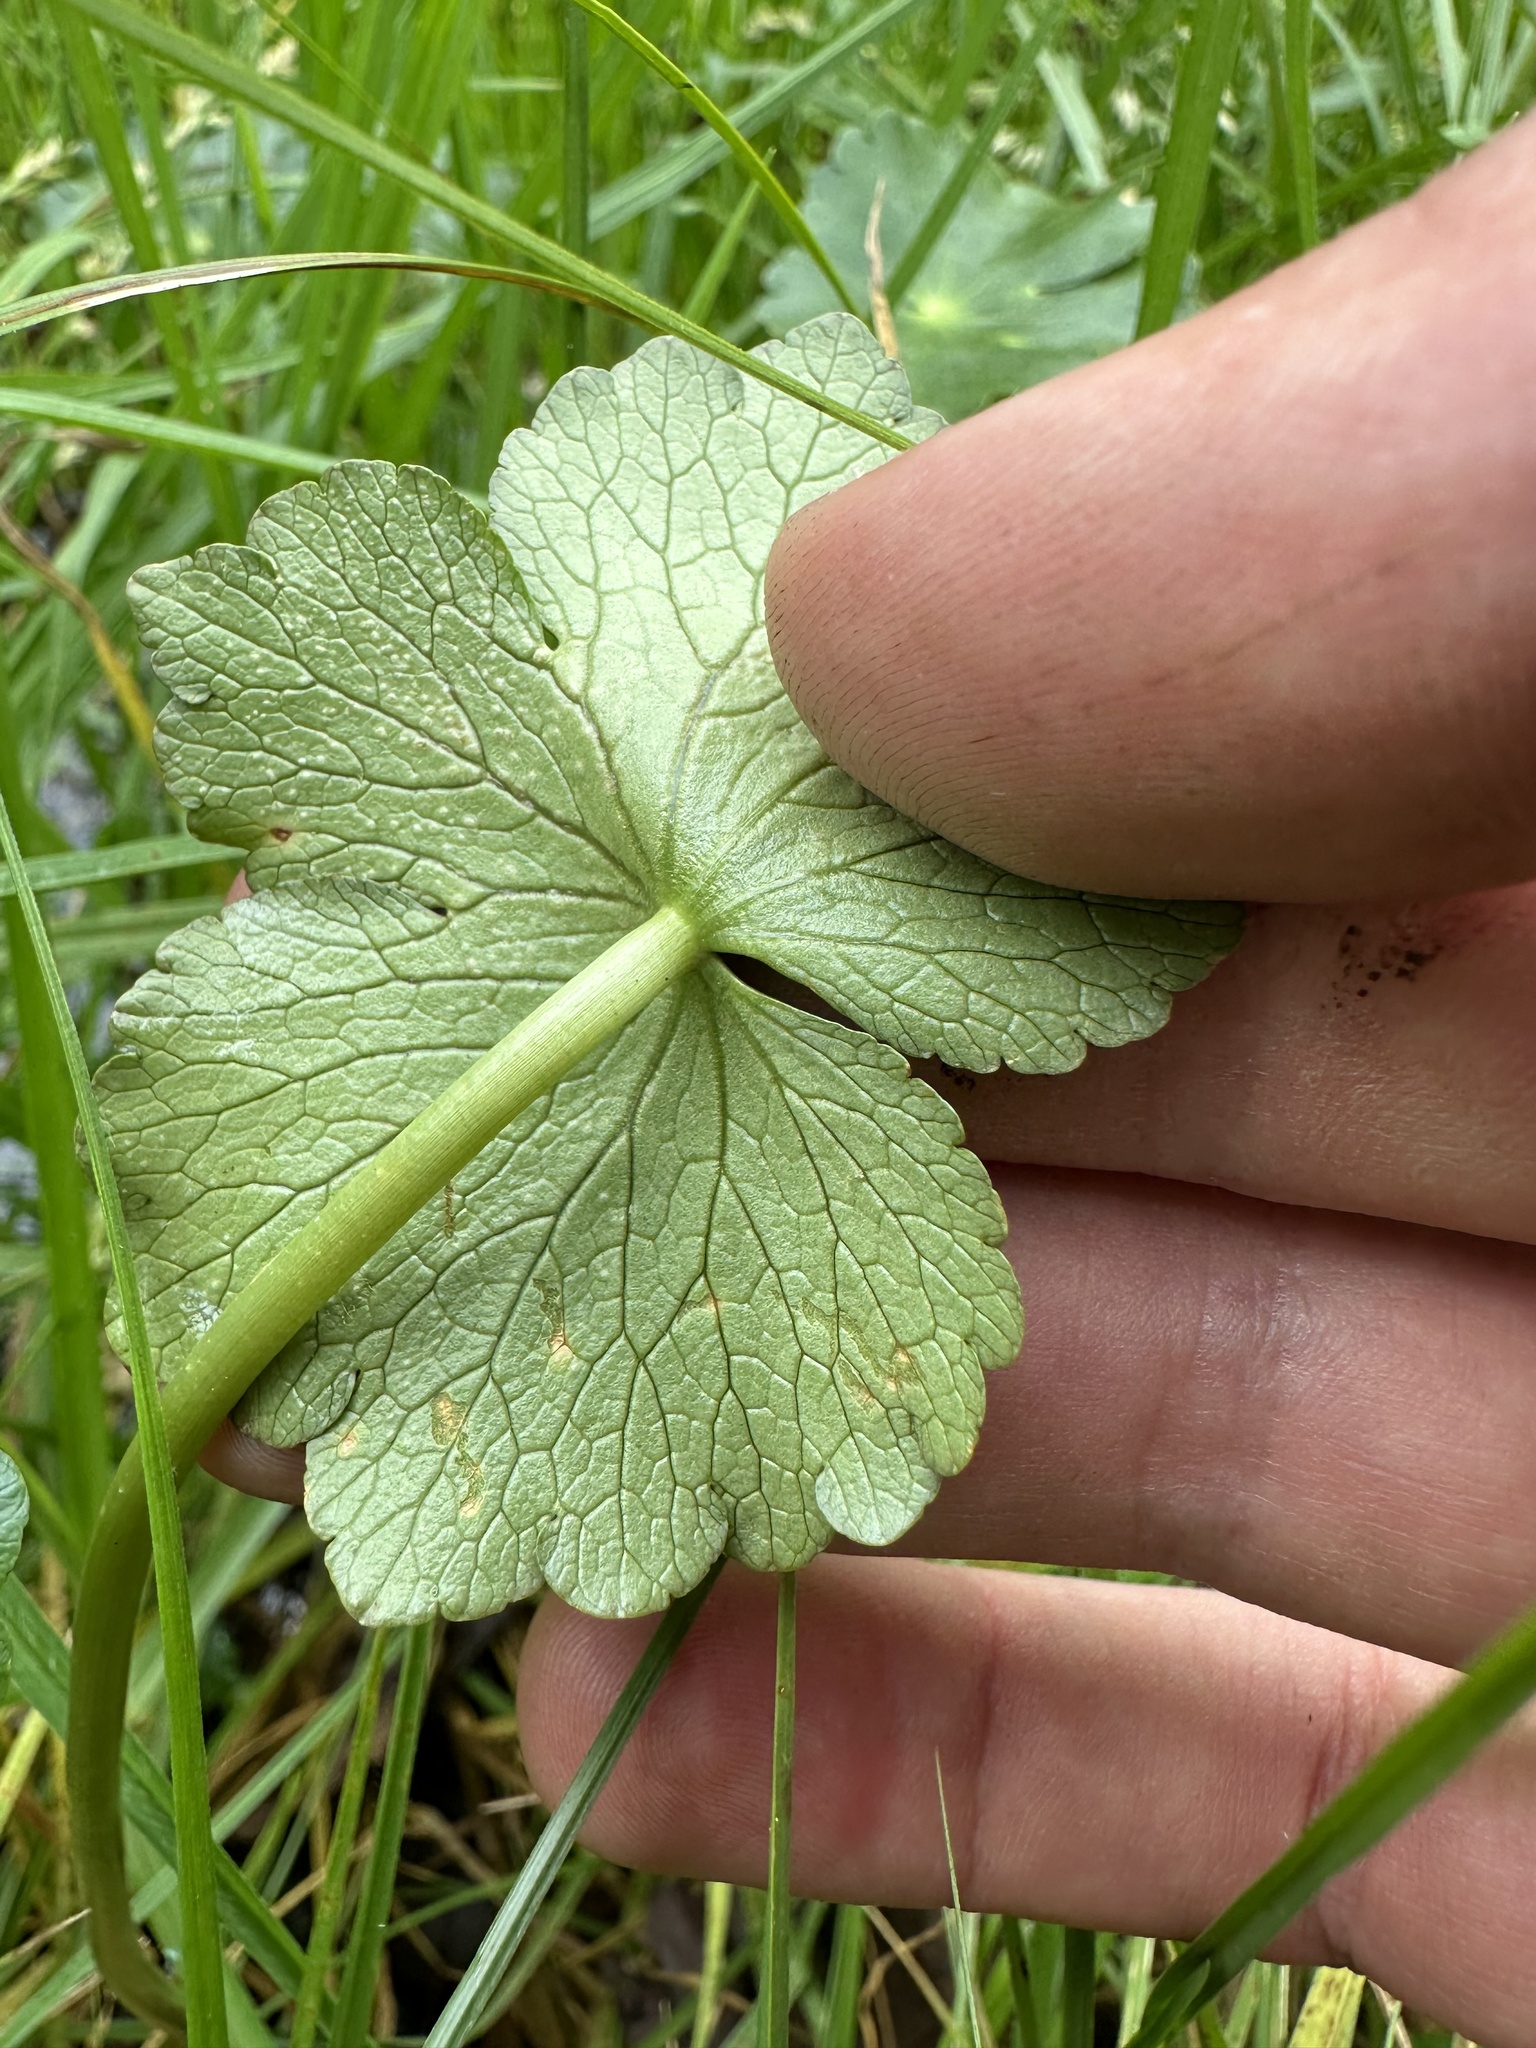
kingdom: Plantae
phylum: Tracheophyta
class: Magnoliopsida
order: Apiales
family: Araliaceae
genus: Hydrocotyle
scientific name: Hydrocotyle ranunculoides
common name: Floating pennywort
